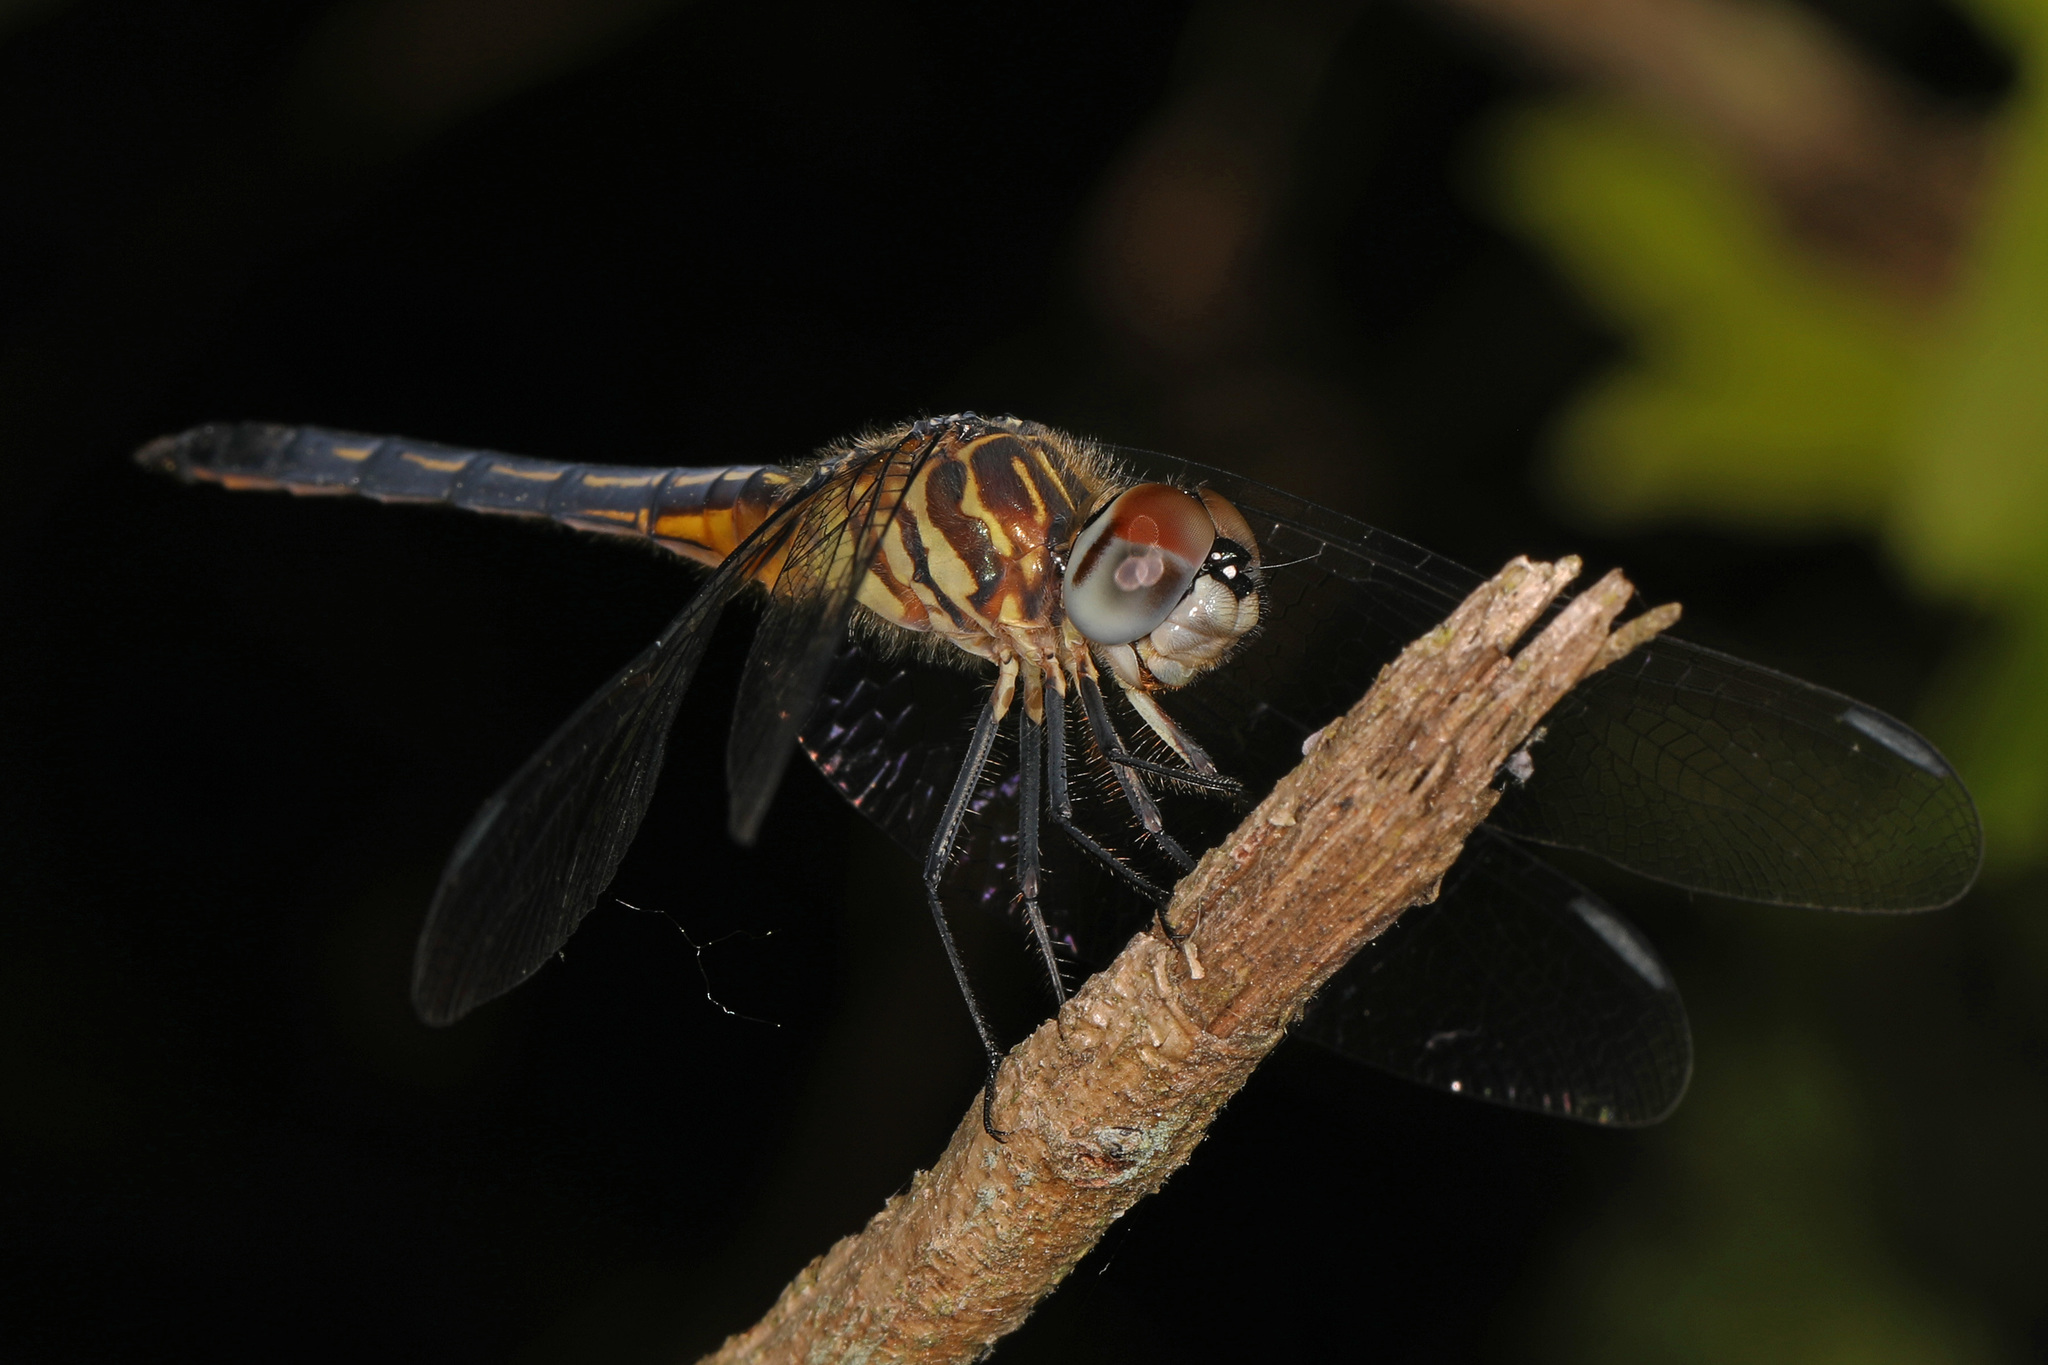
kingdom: Animalia
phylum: Arthropoda
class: Insecta
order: Odonata
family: Libellulidae
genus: Pachydiplax
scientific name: Pachydiplax longipennis
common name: Blue dasher
